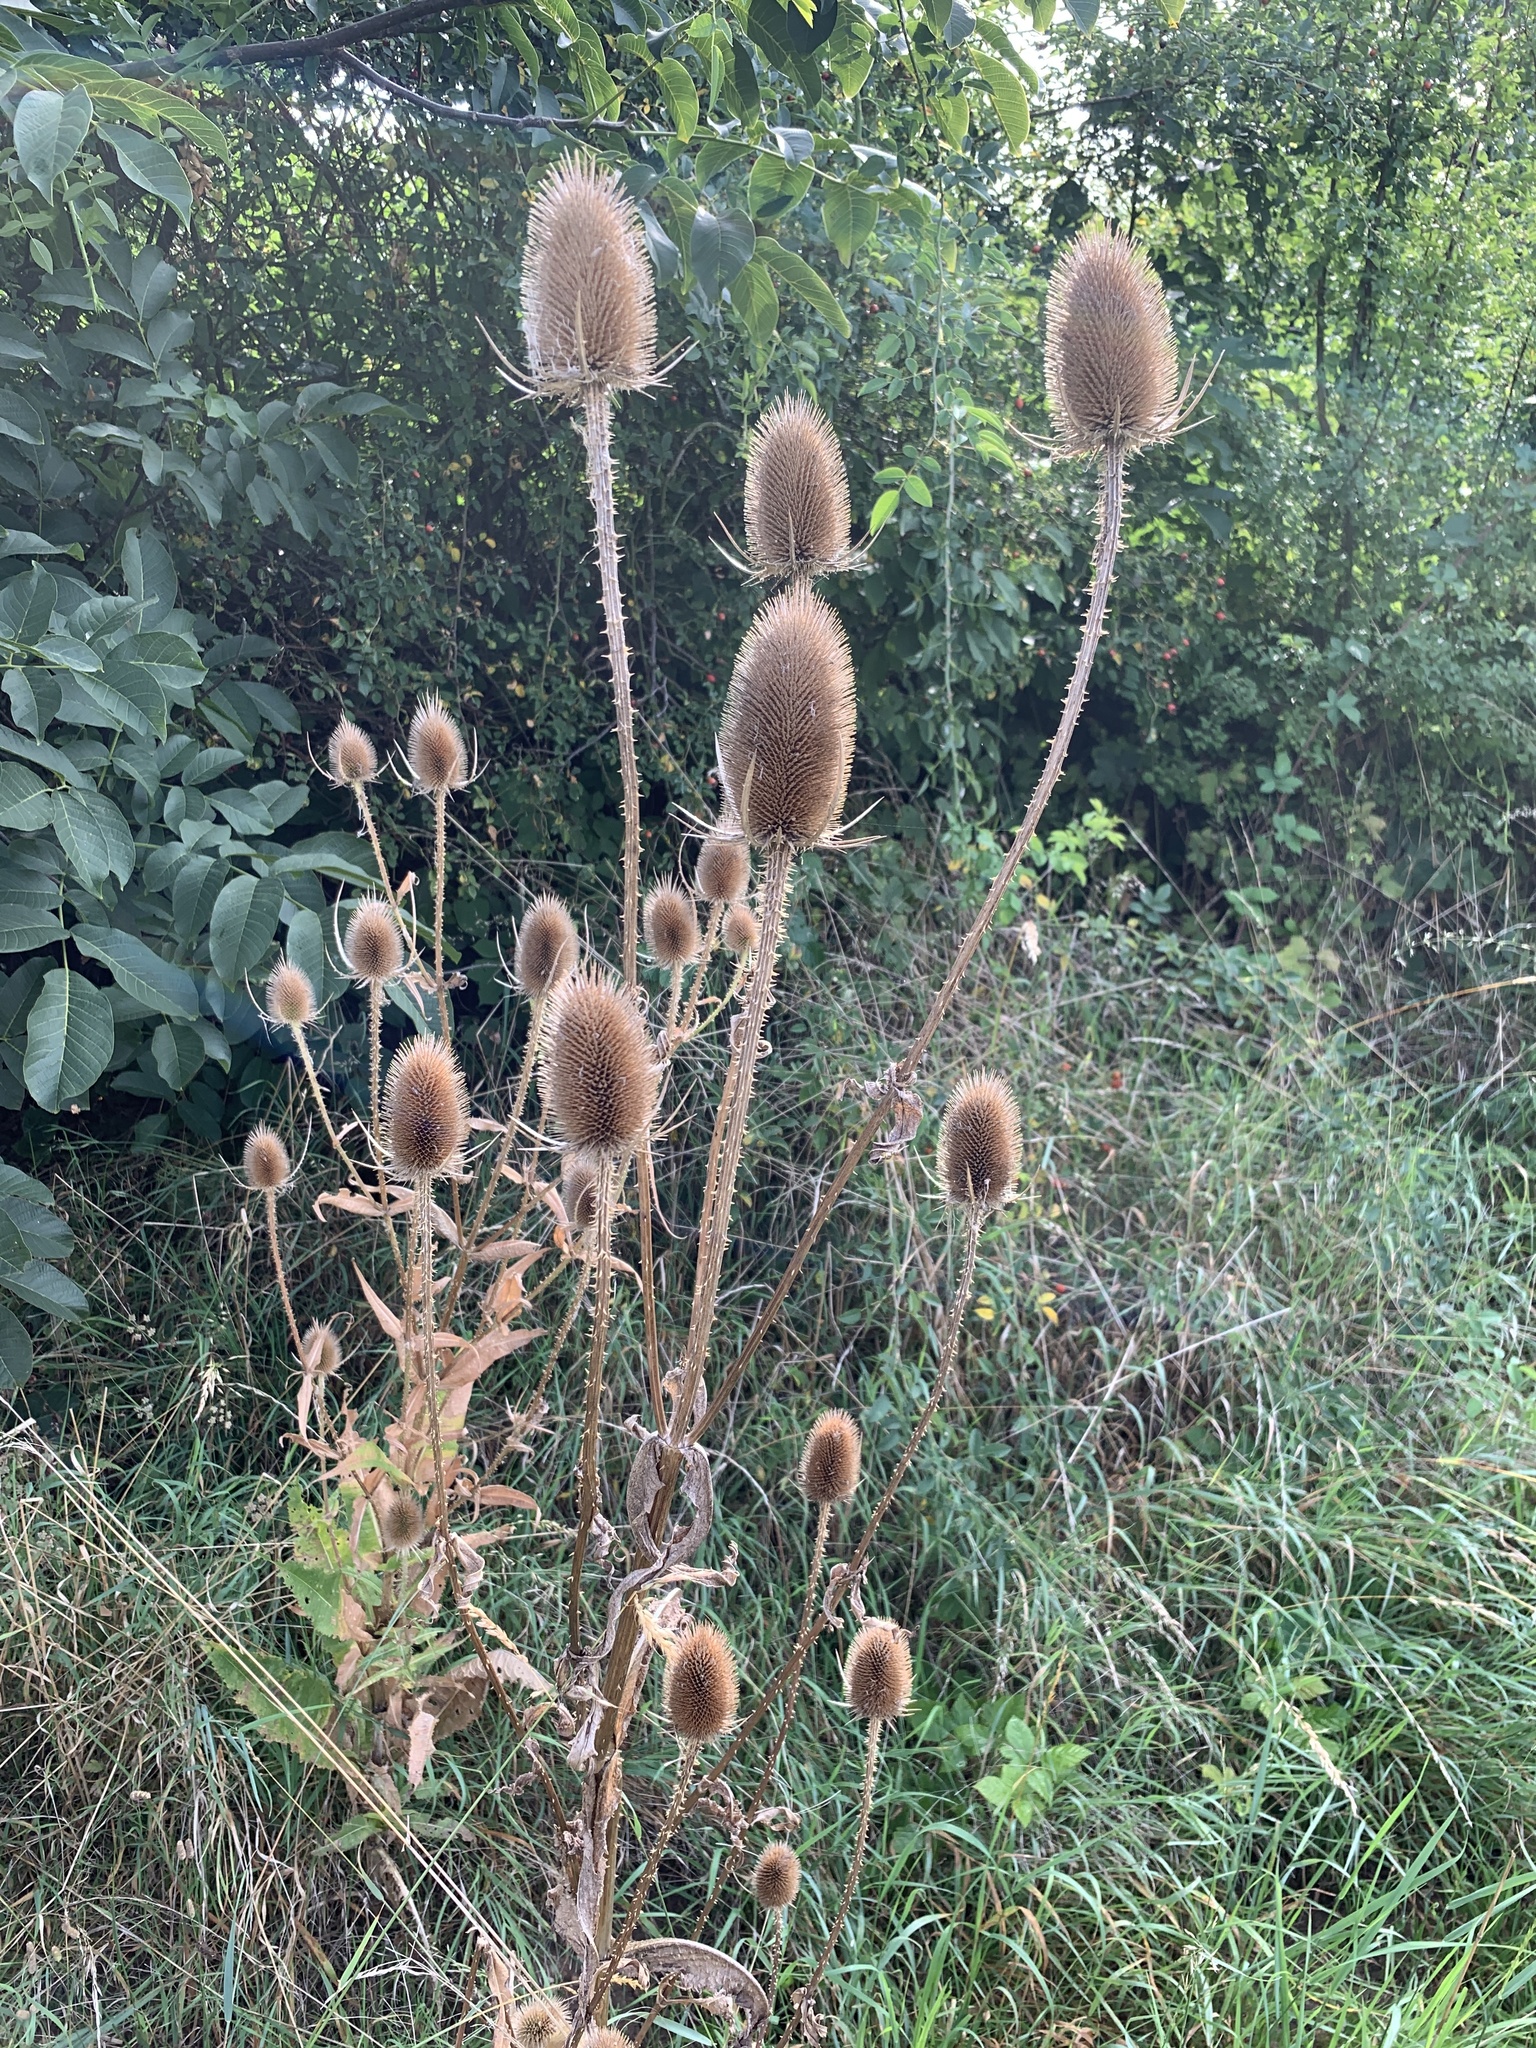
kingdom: Plantae
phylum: Tracheophyta
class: Magnoliopsida
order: Dipsacales
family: Caprifoliaceae
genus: Dipsacus
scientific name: Dipsacus fullonum
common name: Teasel
